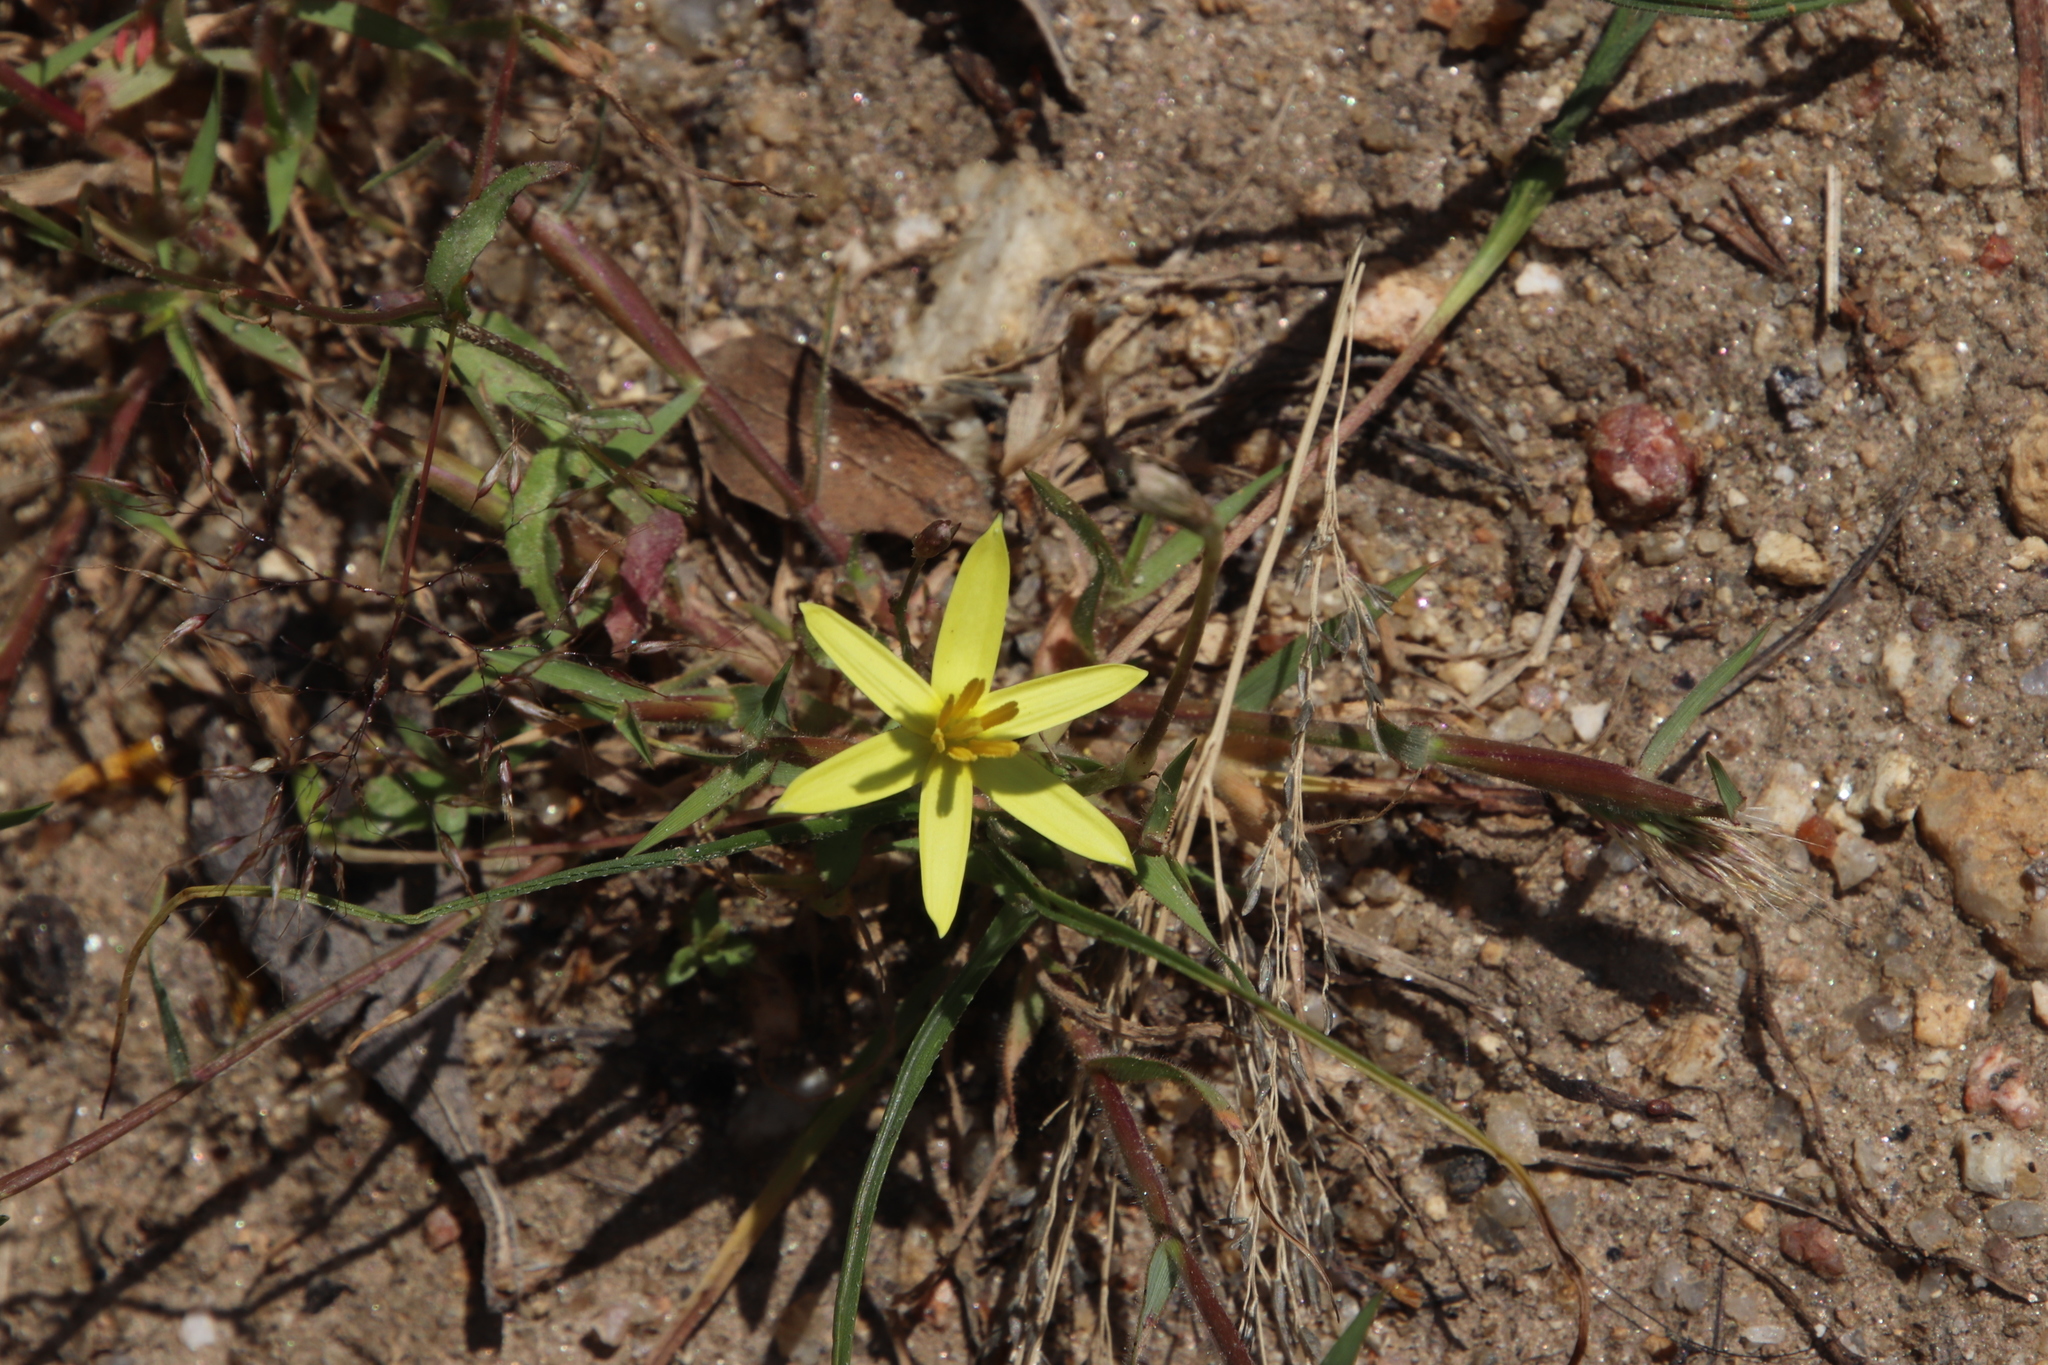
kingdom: Plantae
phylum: Tracheophyta
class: Liliopsida
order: Asparagales
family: Hypoxidaceae
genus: Pauridia
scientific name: Pauridia serrata
